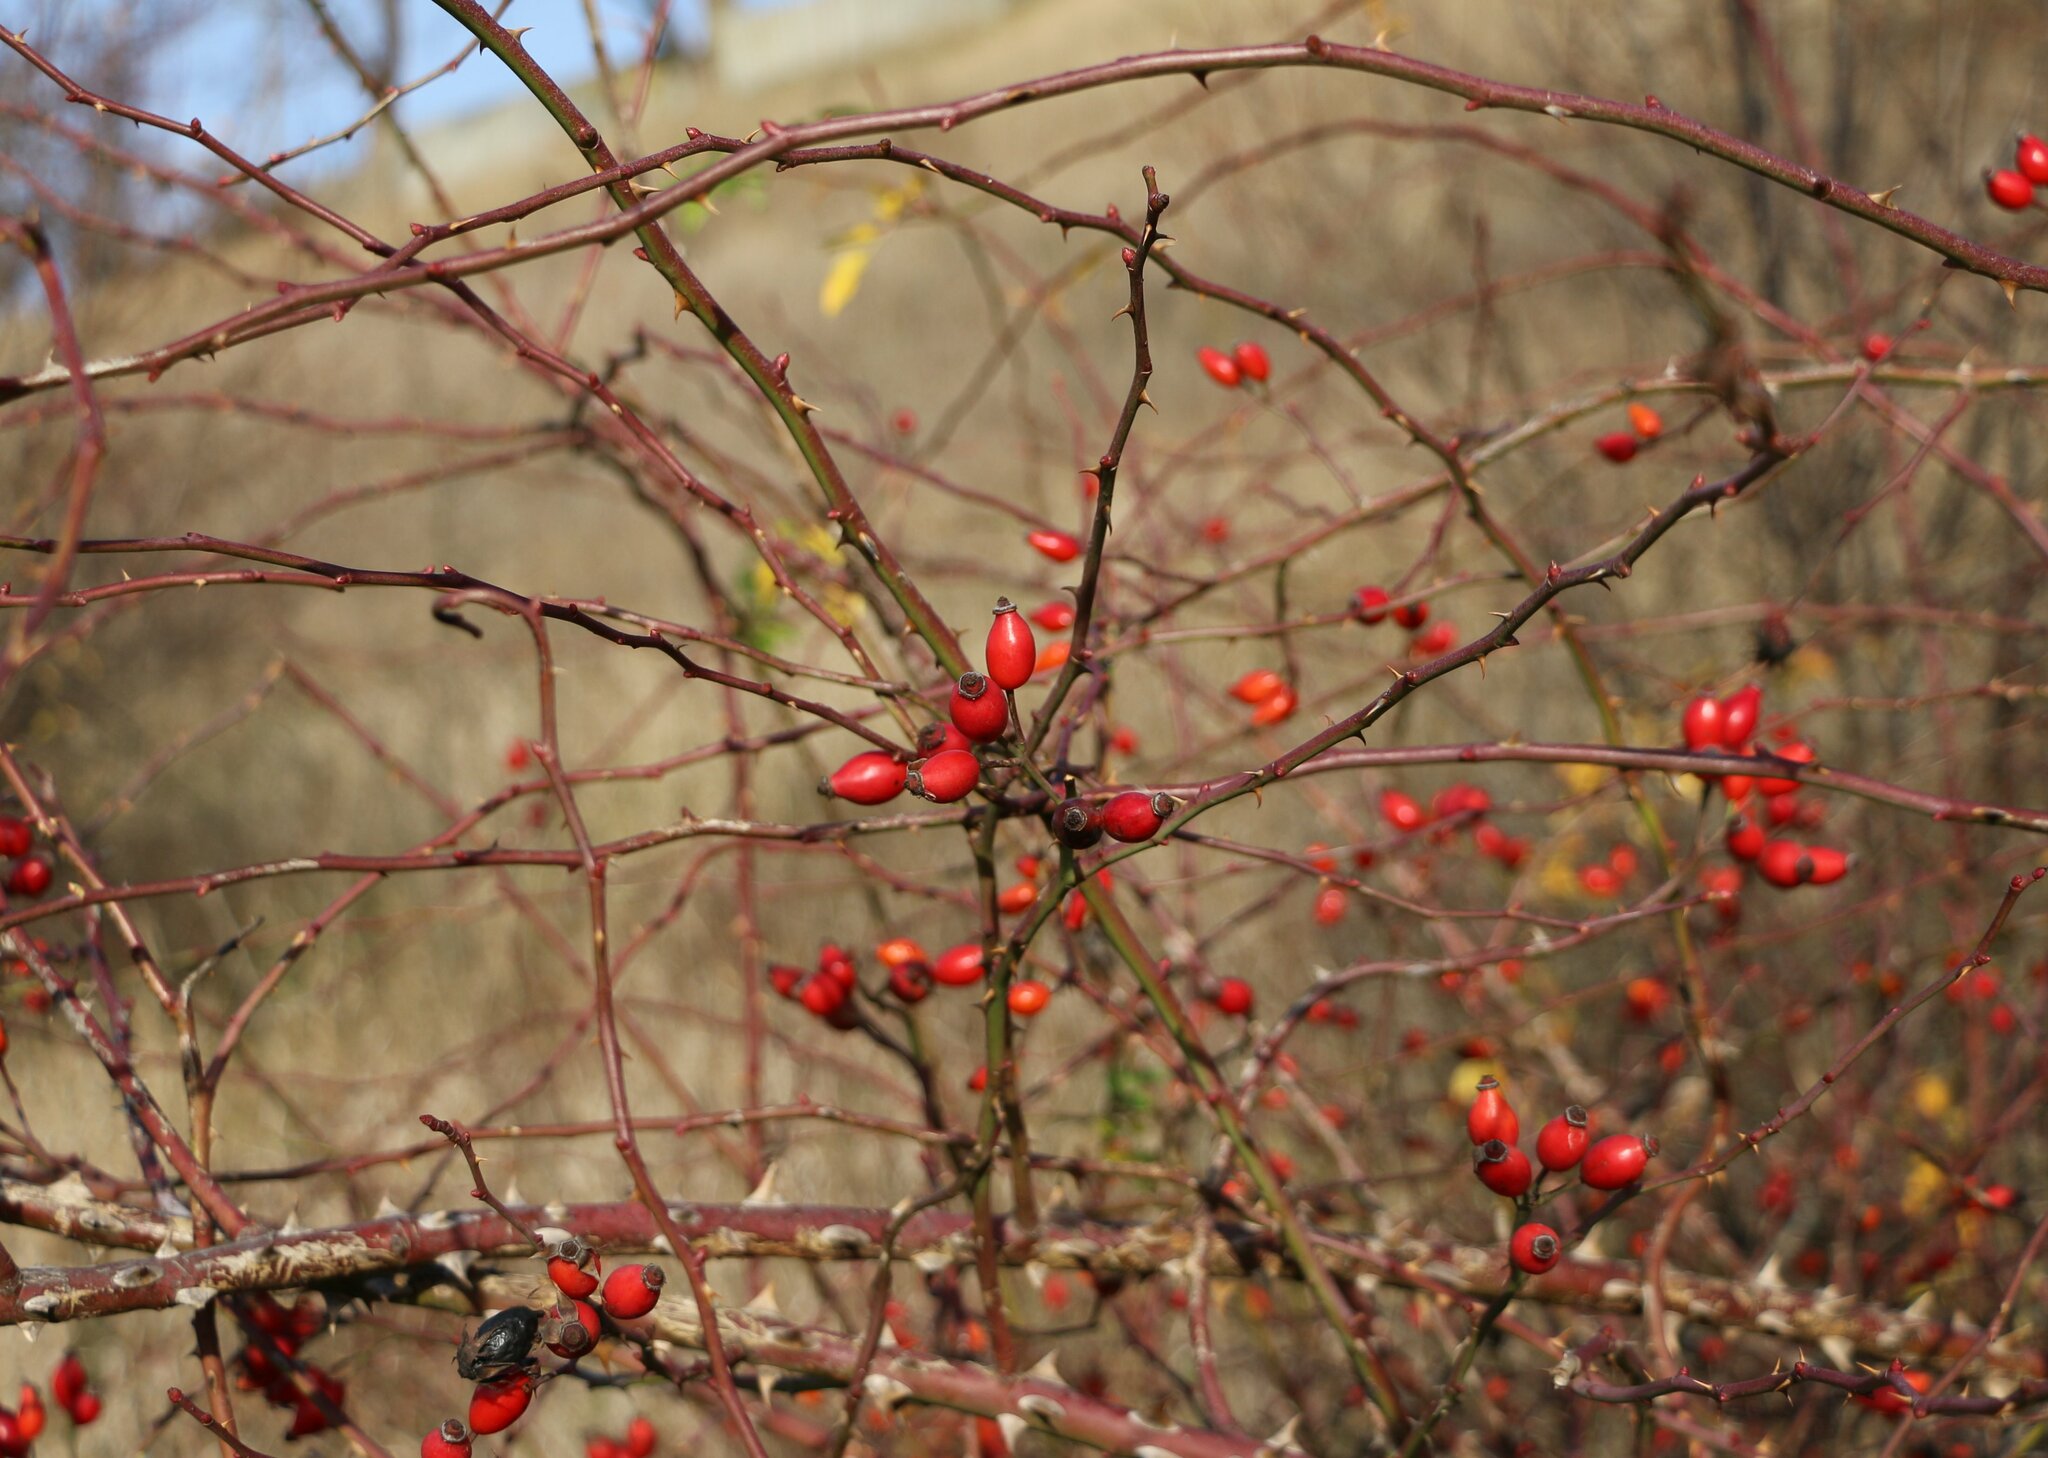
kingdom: Plantae
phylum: Tracheophyta
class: Magnoliopsida
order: Rosales
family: Rosaceae
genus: Rosa
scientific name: Rosa corymbifera
